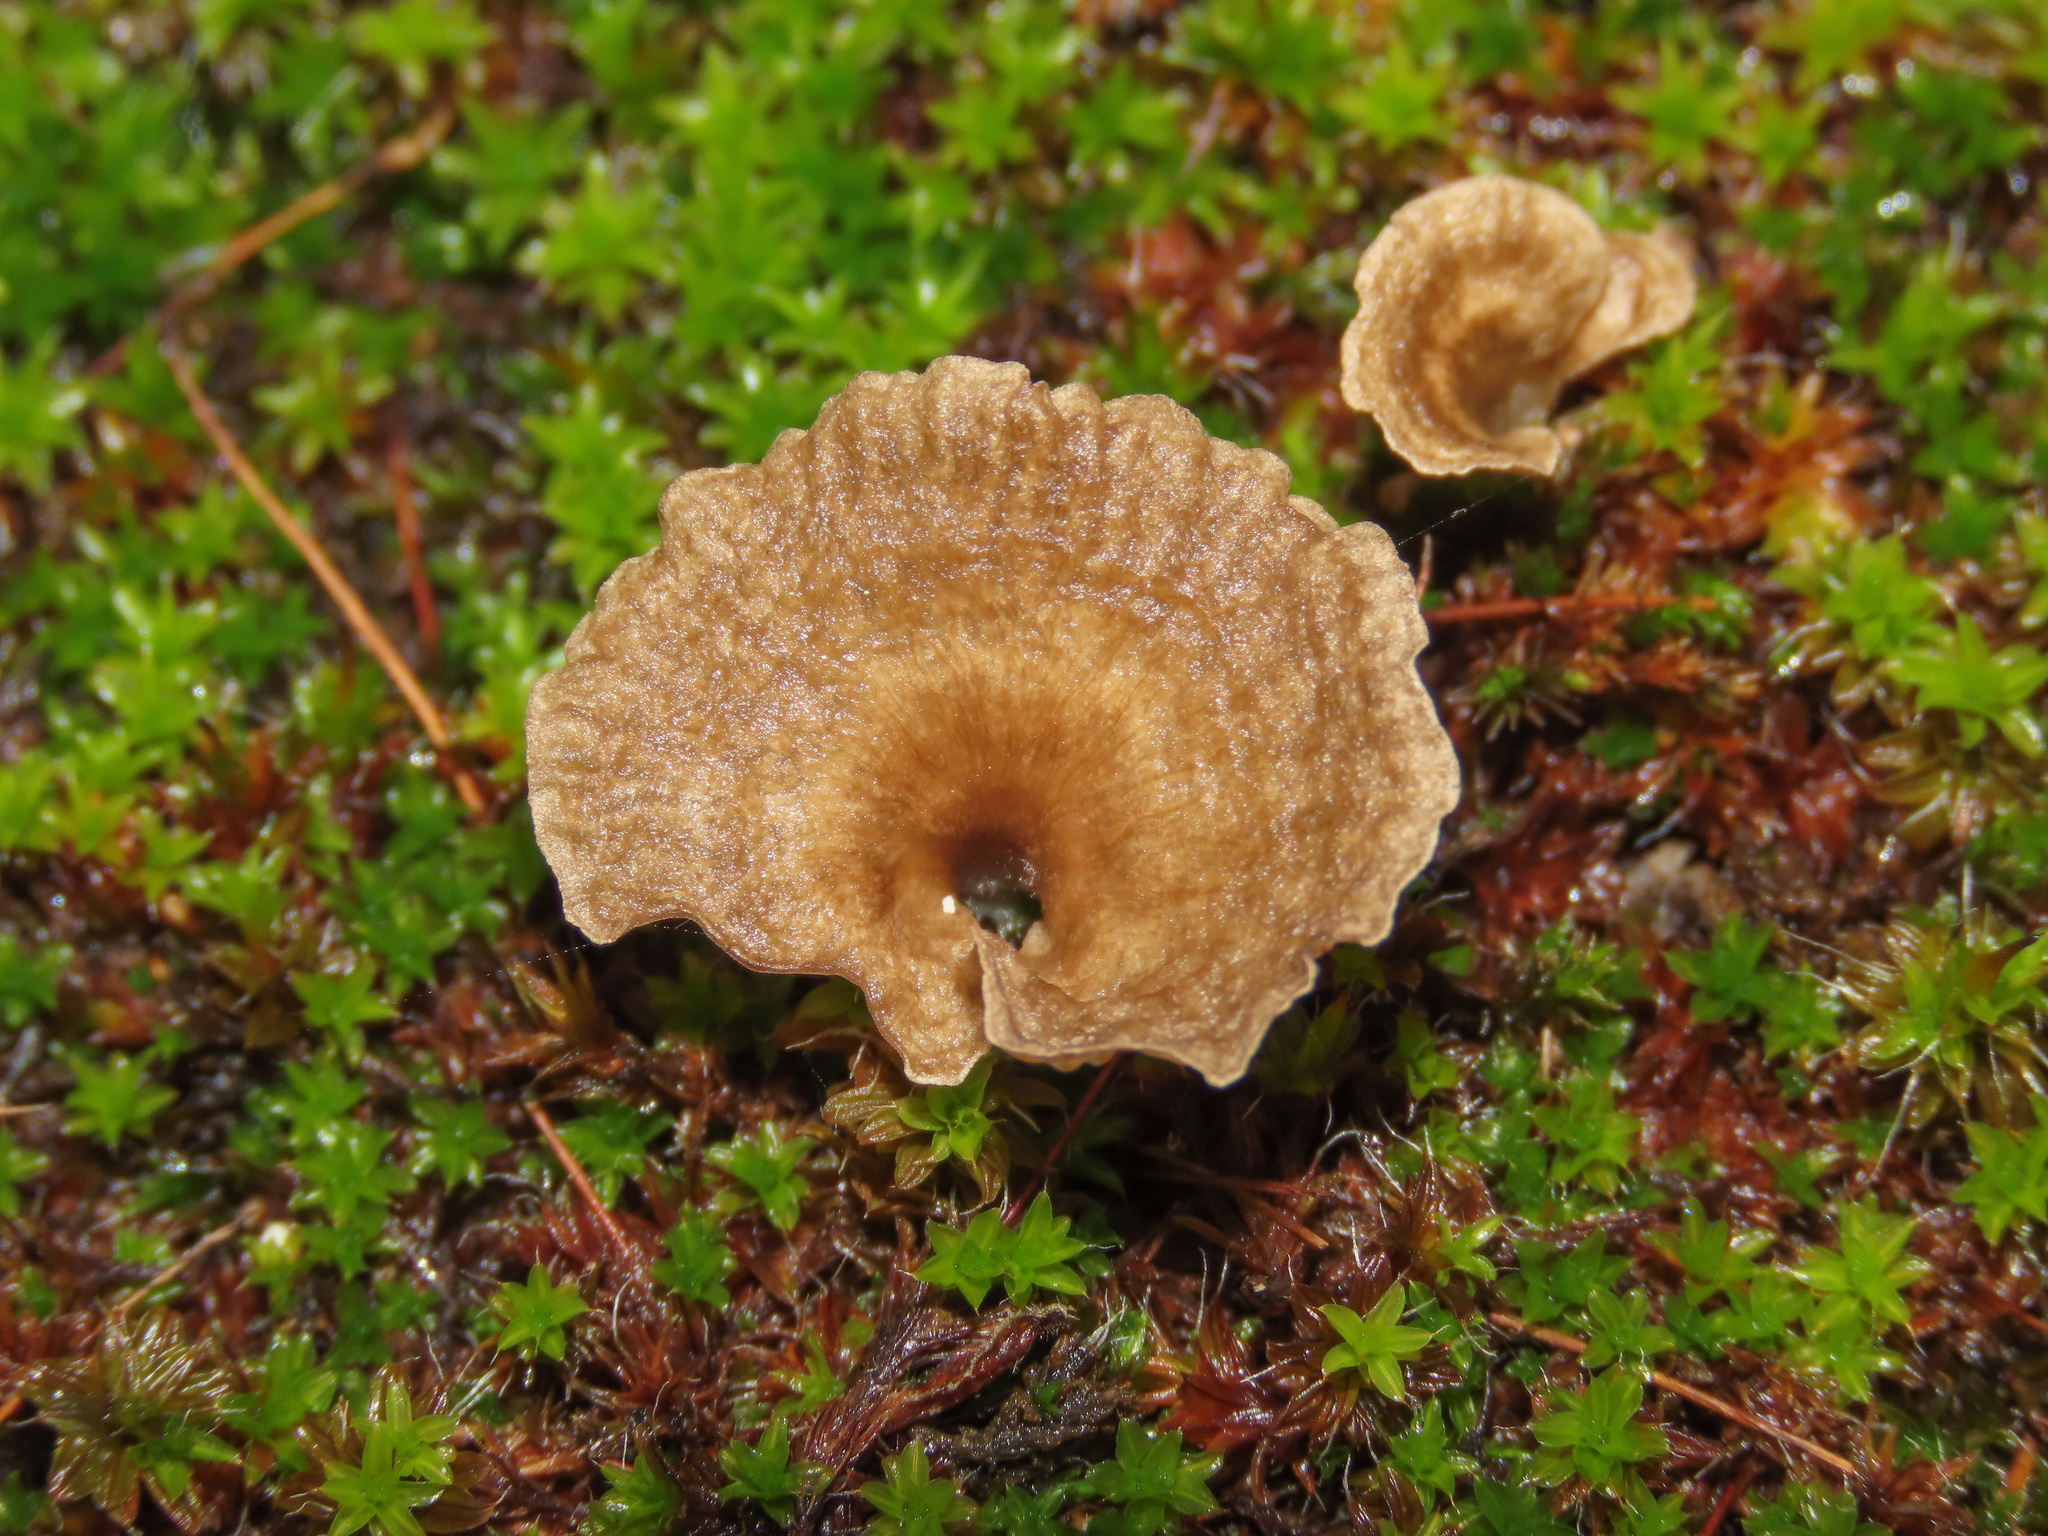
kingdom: Fungi
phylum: Basidiomycota
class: Agaricomycetes
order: Agaricales
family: Hygrophoraceae
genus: Arrhenia
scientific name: Arrhenia rickenii
